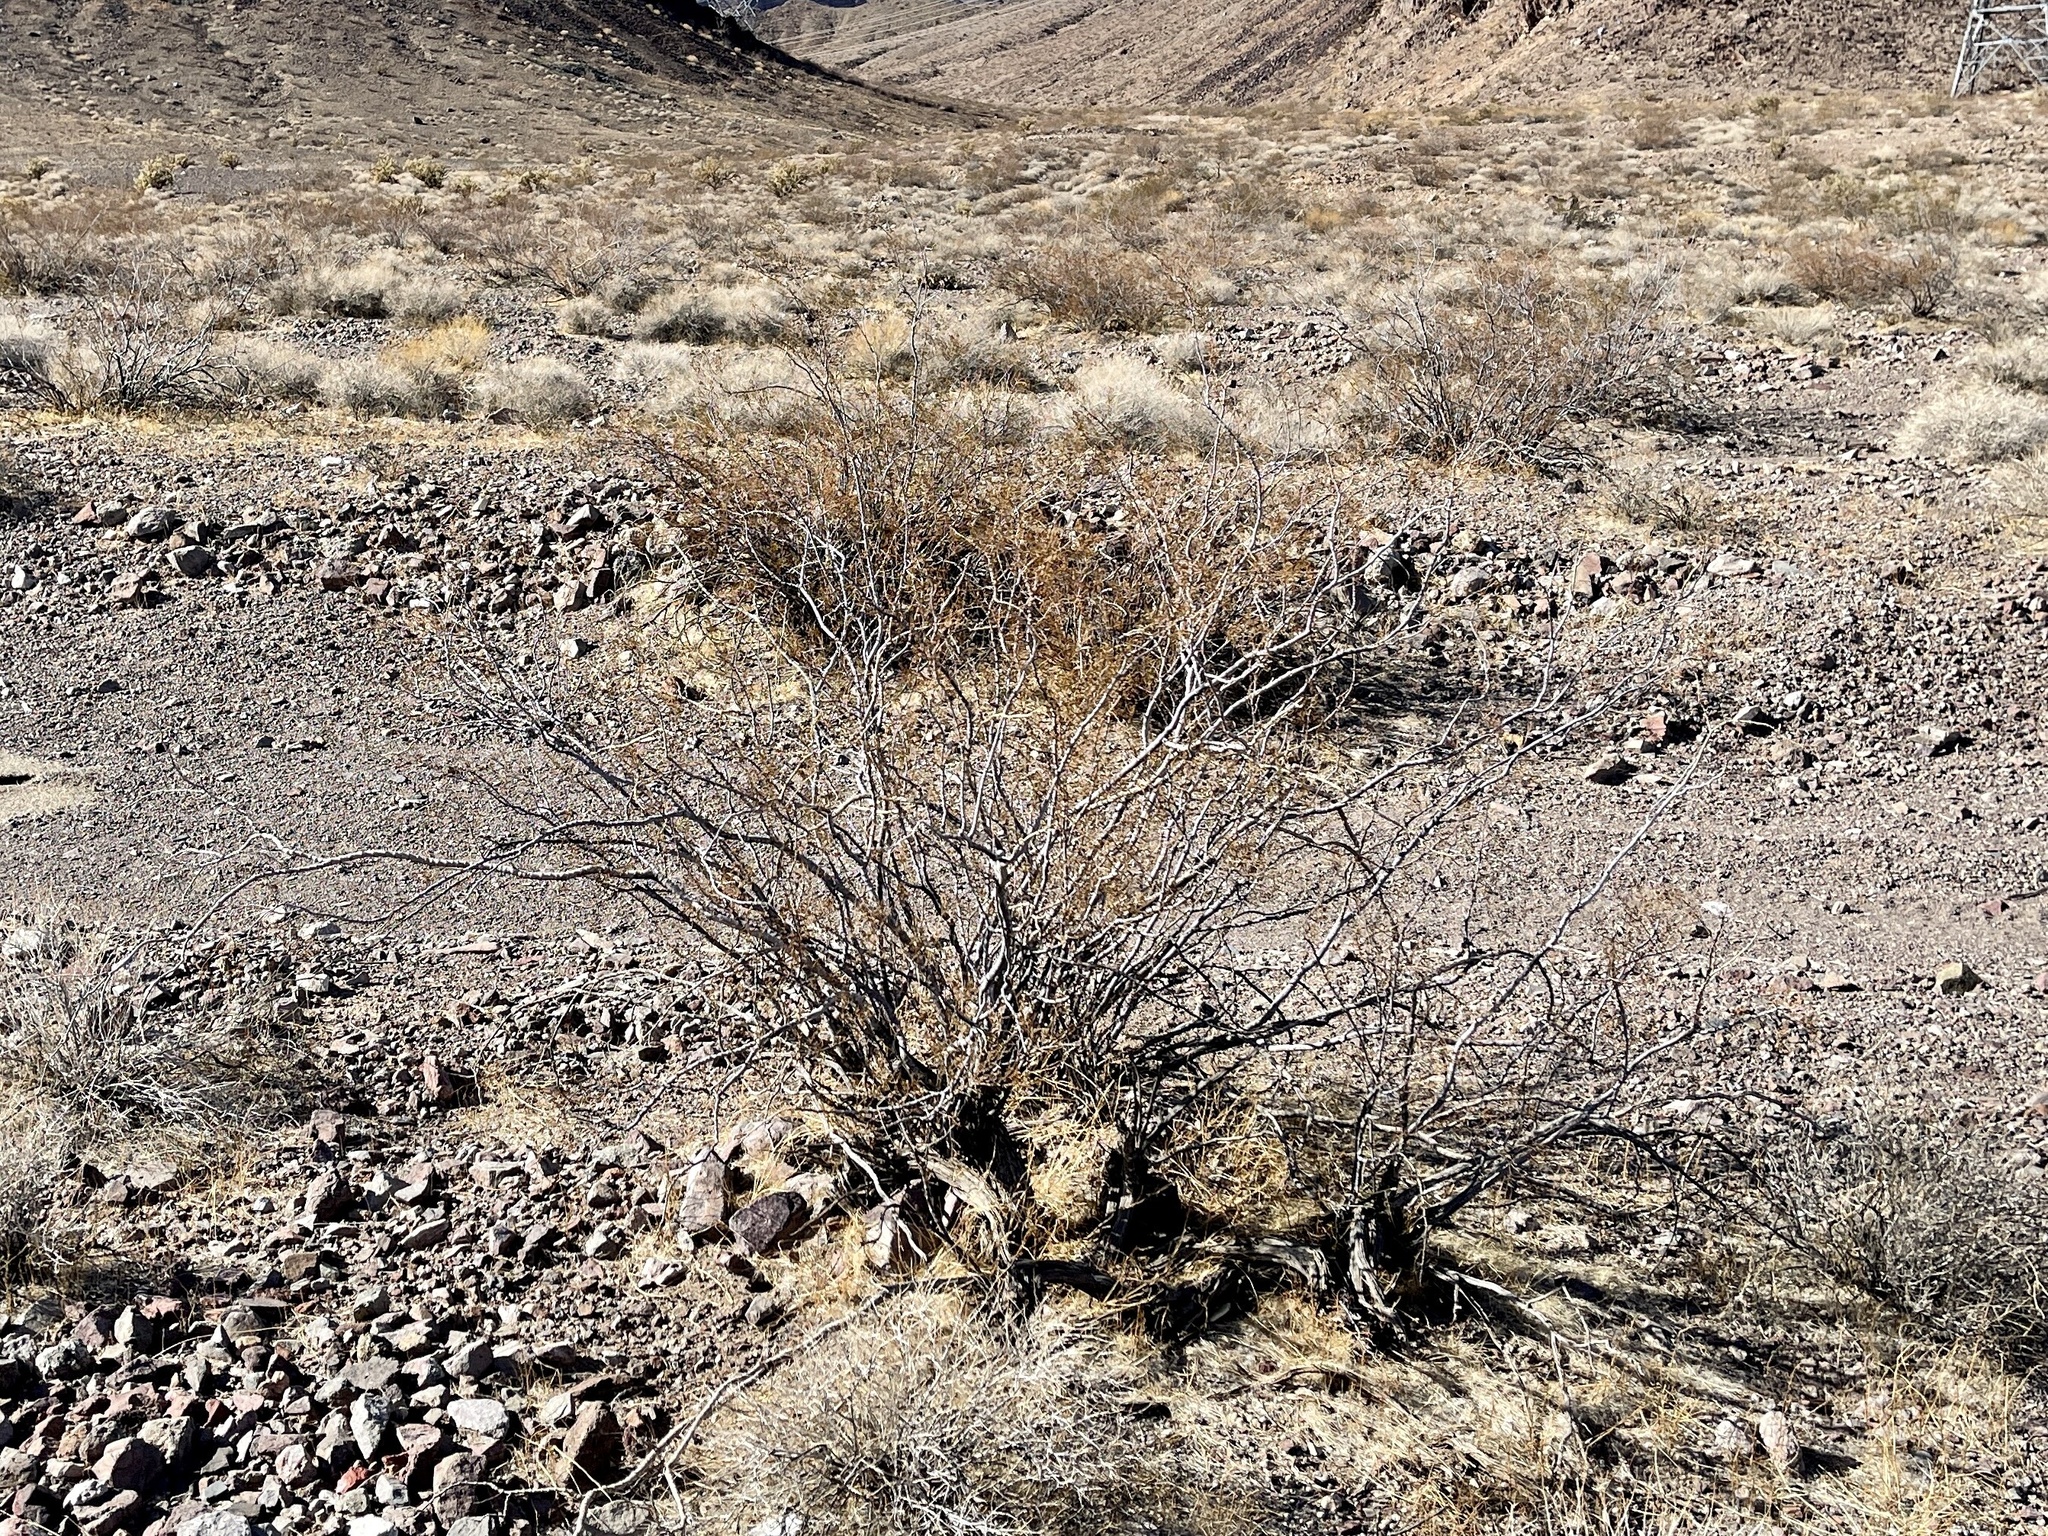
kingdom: Plantae
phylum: Tracheophyta
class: Magnoliopsida
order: Zygophyllales
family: Zygophyllaceae
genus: Larrea
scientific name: Larrea tridentata
